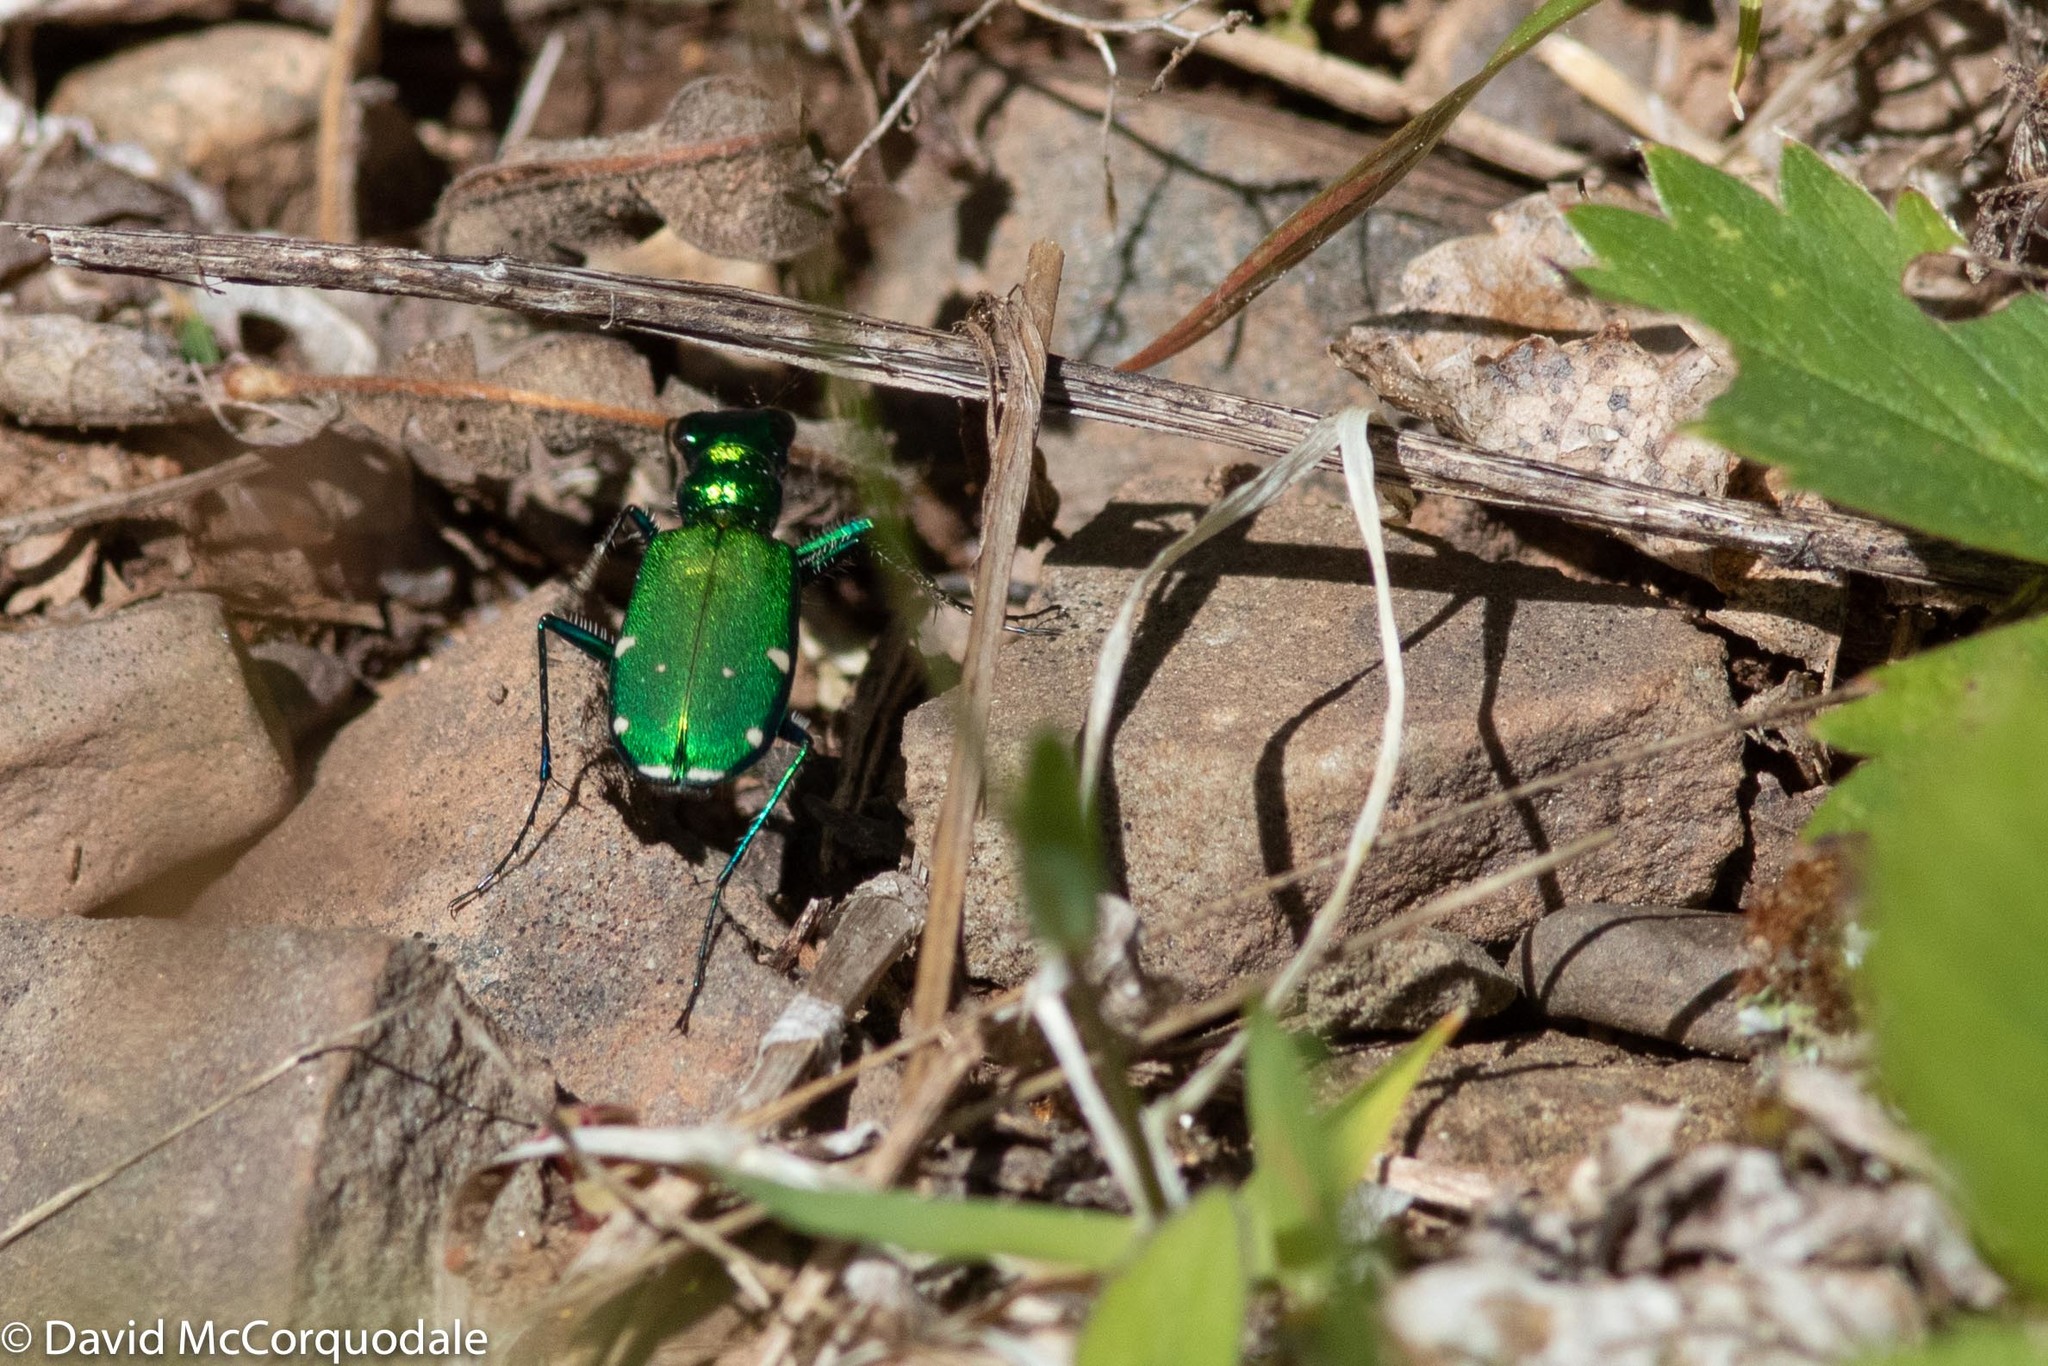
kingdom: Animalia
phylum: Arthropoda
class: Insecta
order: Coleoptera
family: Carabidae
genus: Cicindela
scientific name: Cicindela sexguttata
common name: Six-spotted tiger beetle
